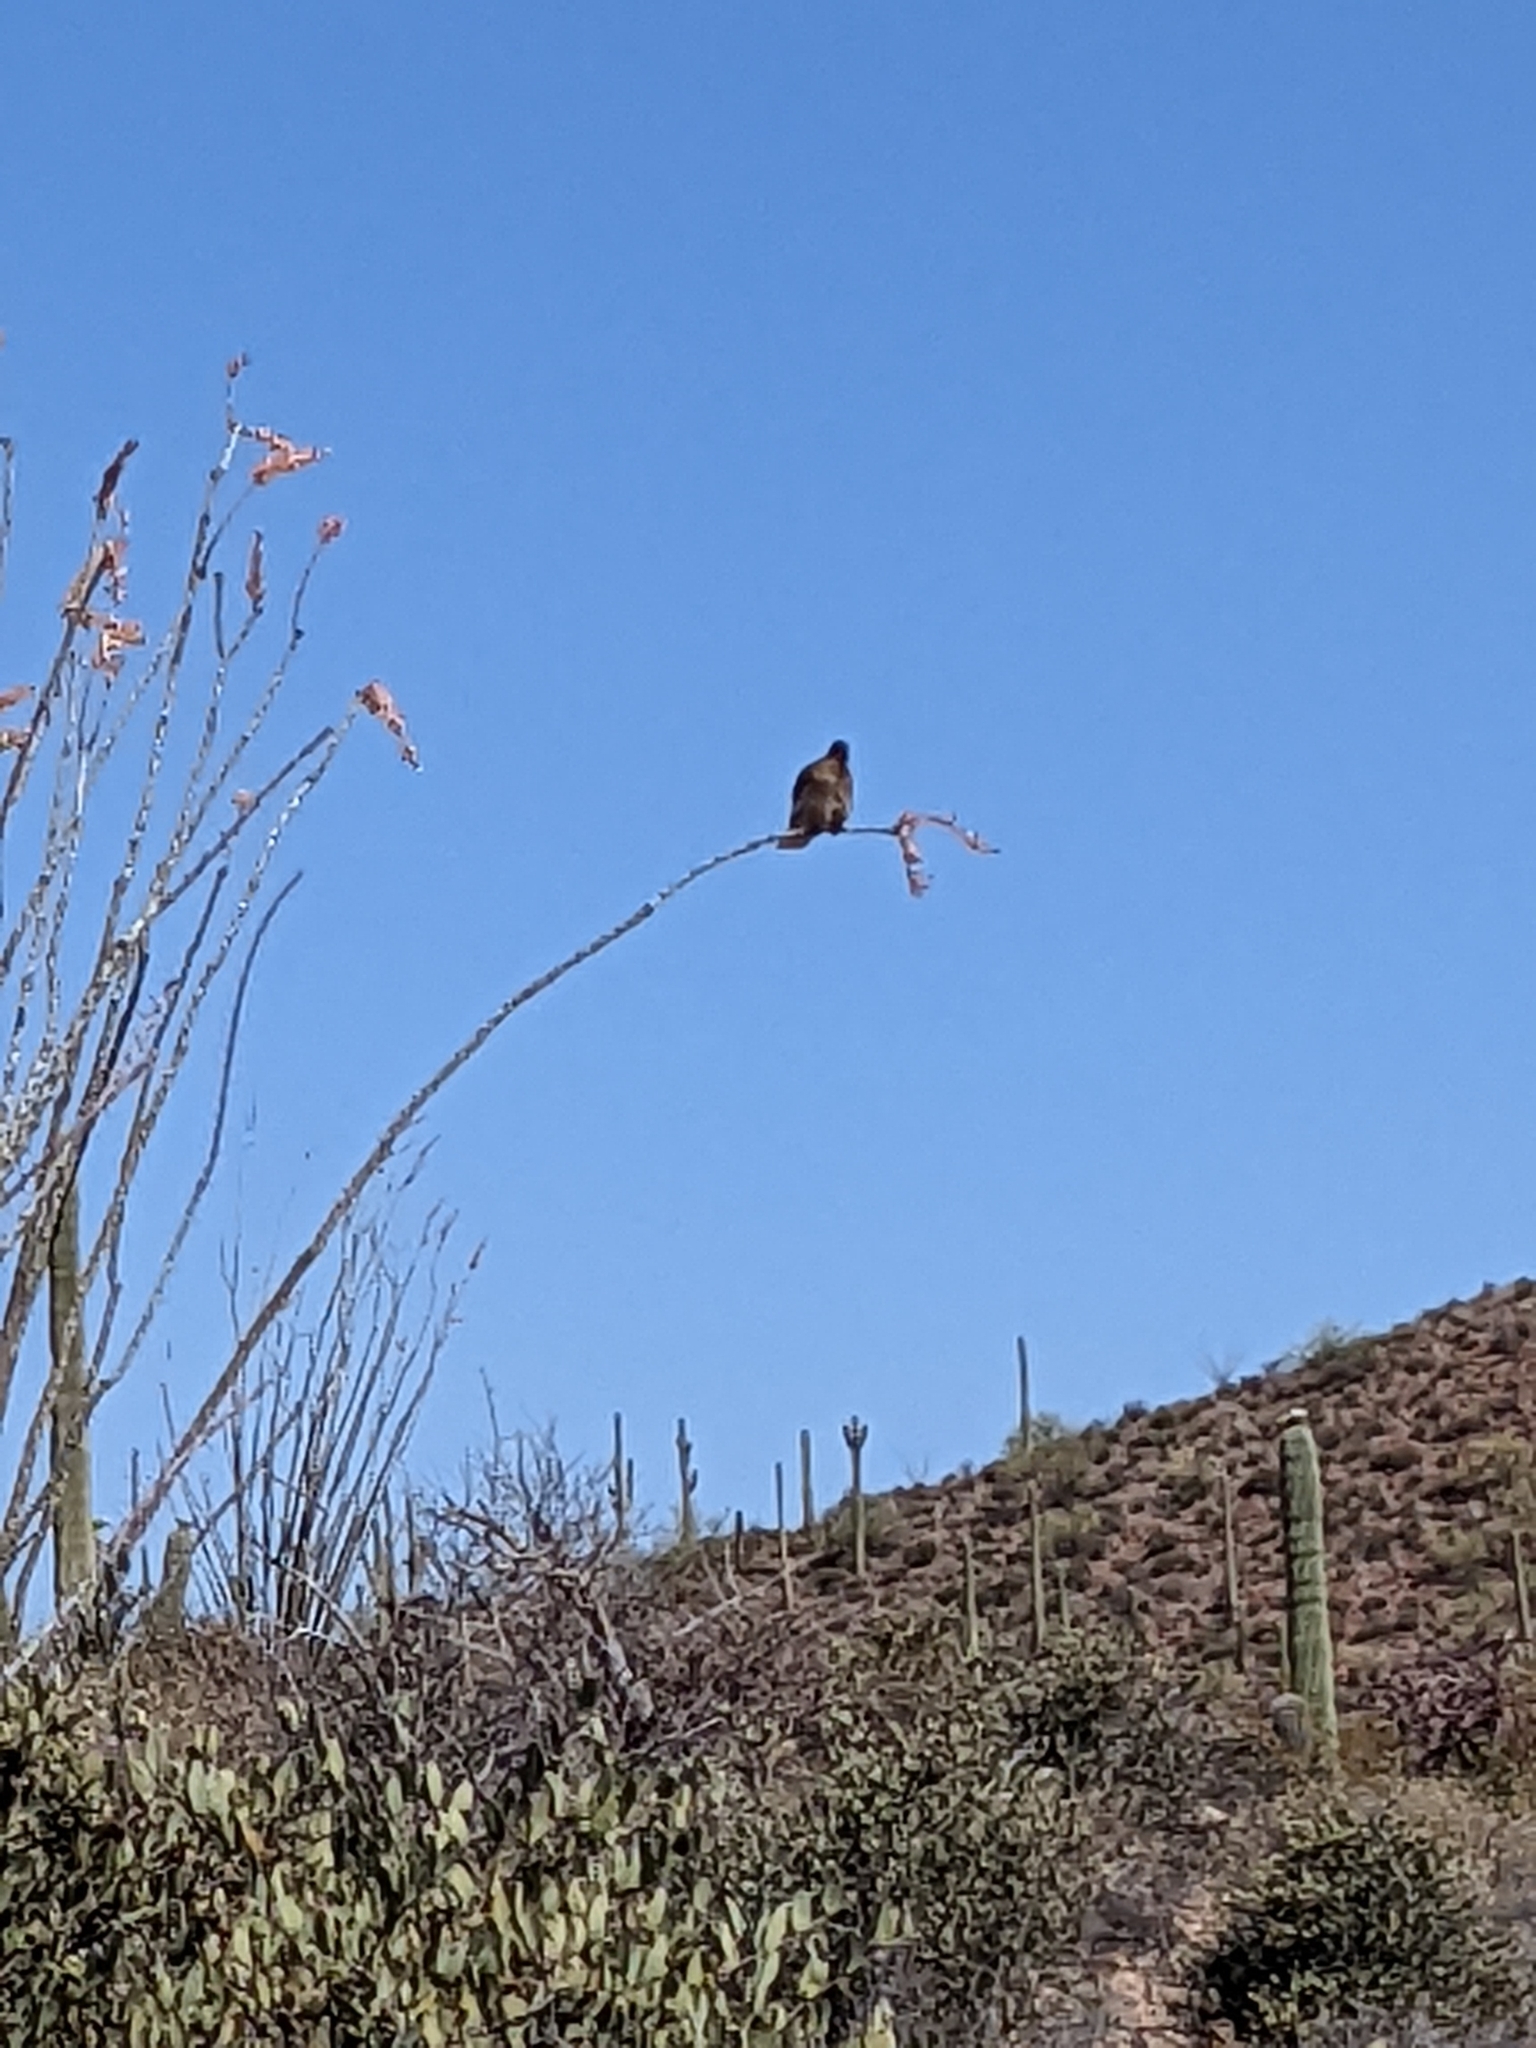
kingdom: Animalia
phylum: Chordata
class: Aves
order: Columbiformes
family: Columbidae
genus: Zenaida
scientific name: Zenaida asiatica
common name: White-winged dove
